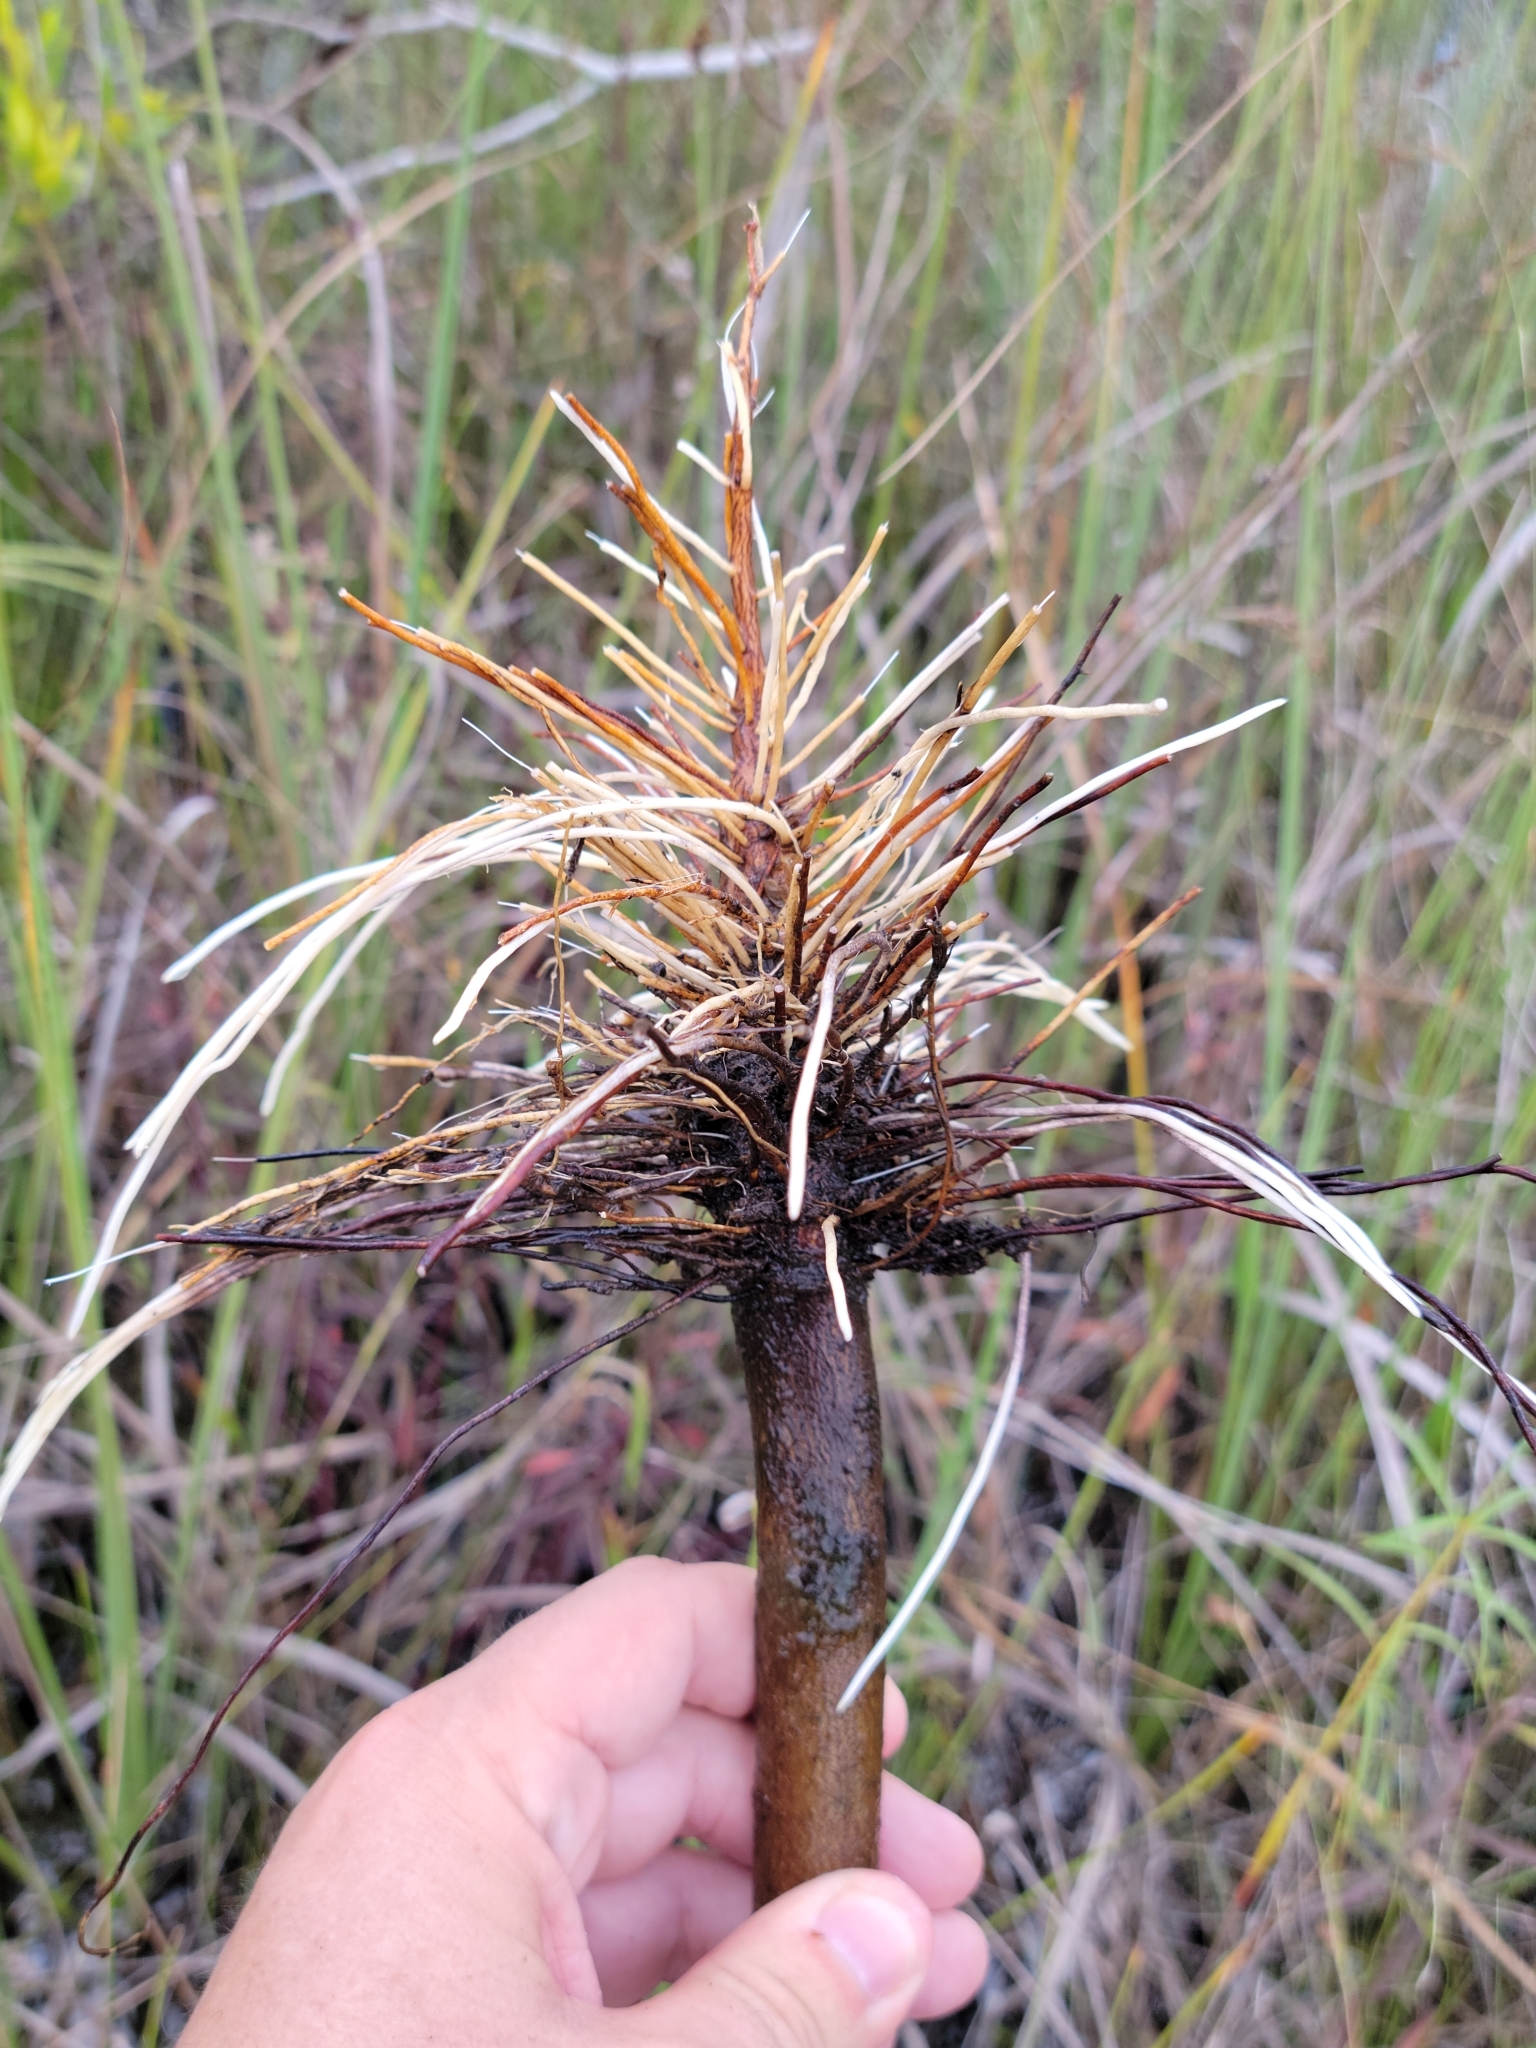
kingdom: Plantae
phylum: Tracheophyta
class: Magnoliopsida
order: Malpighiales
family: Euphorbiaceae
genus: Stillingia
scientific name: Stillingia aquatica
